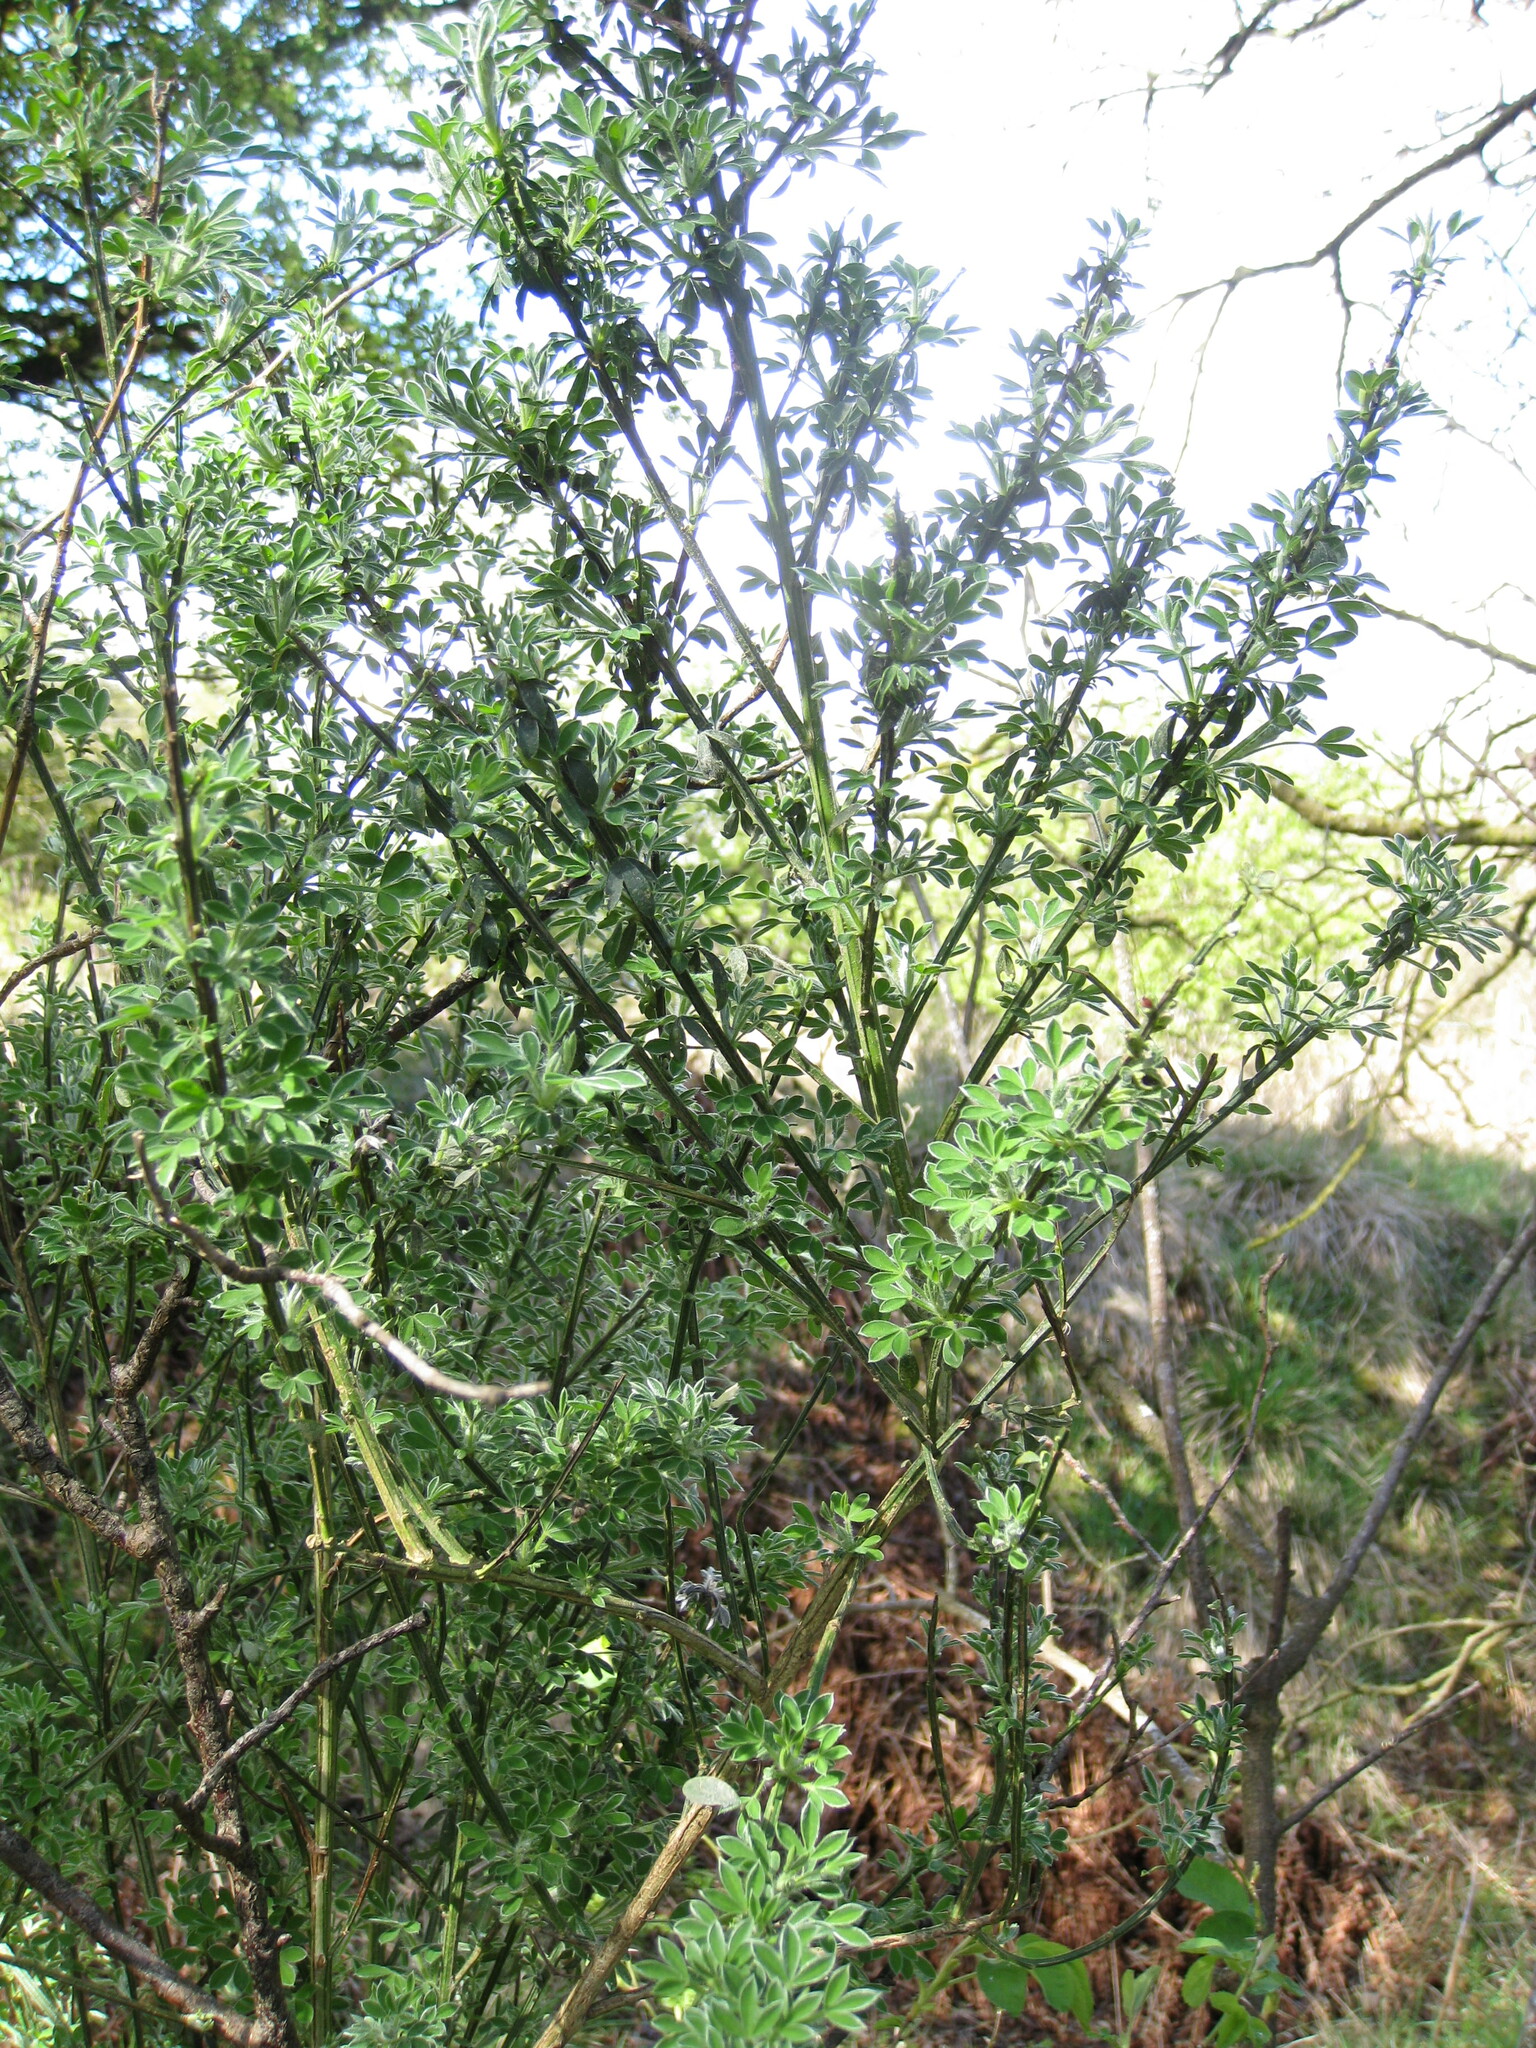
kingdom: Plantae
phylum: Tracheophyta
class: Magnoliopsida
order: Fabales
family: Fabaceae
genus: Cytisus
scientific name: Cytisus scoparius
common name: Scotch broom
